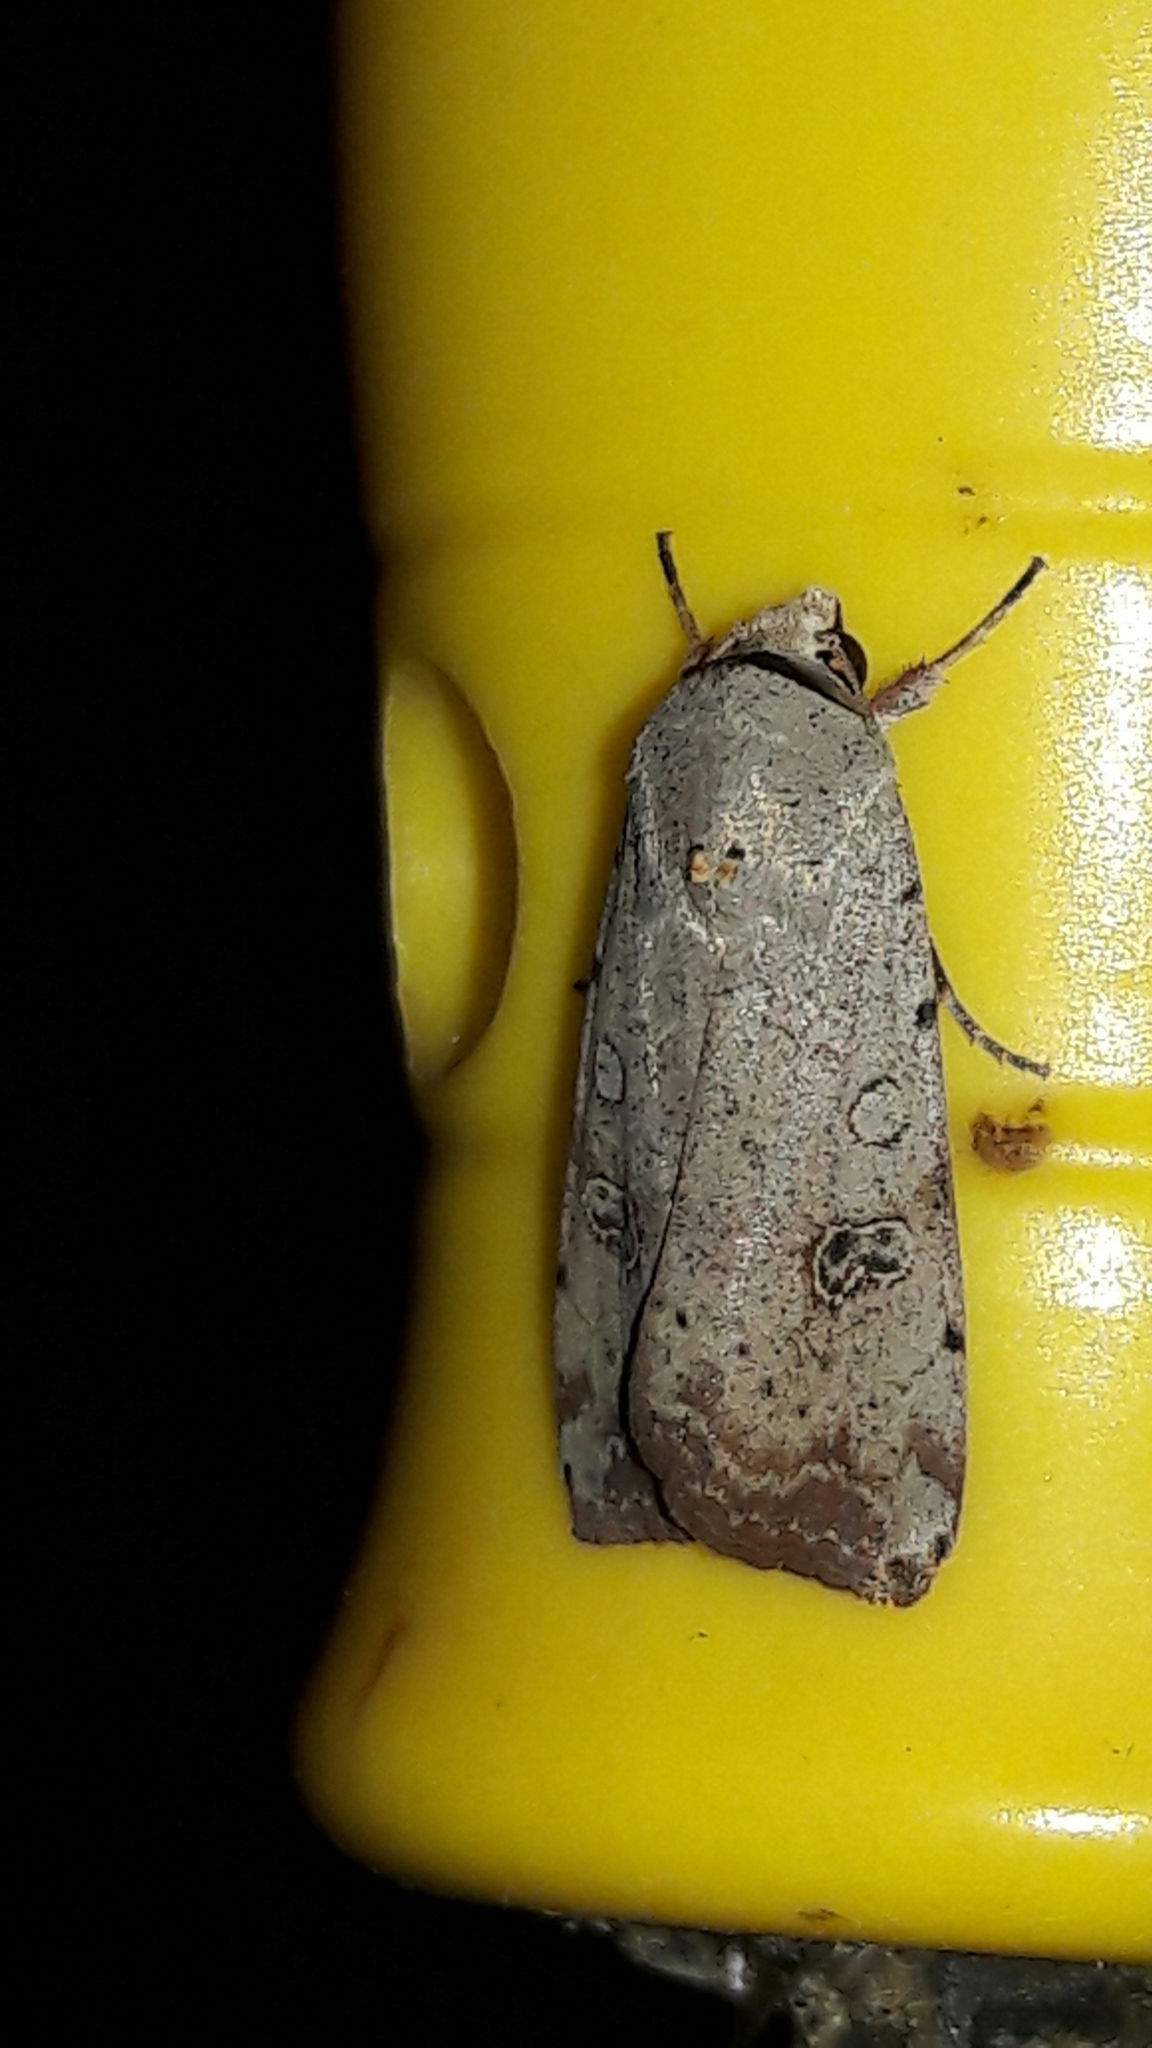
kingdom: Animalia
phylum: Arthropoda
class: Insecta
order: Lepidoptera
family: Noctuidae
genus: Anicla
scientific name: Anicla infecta
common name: Green cutworm
